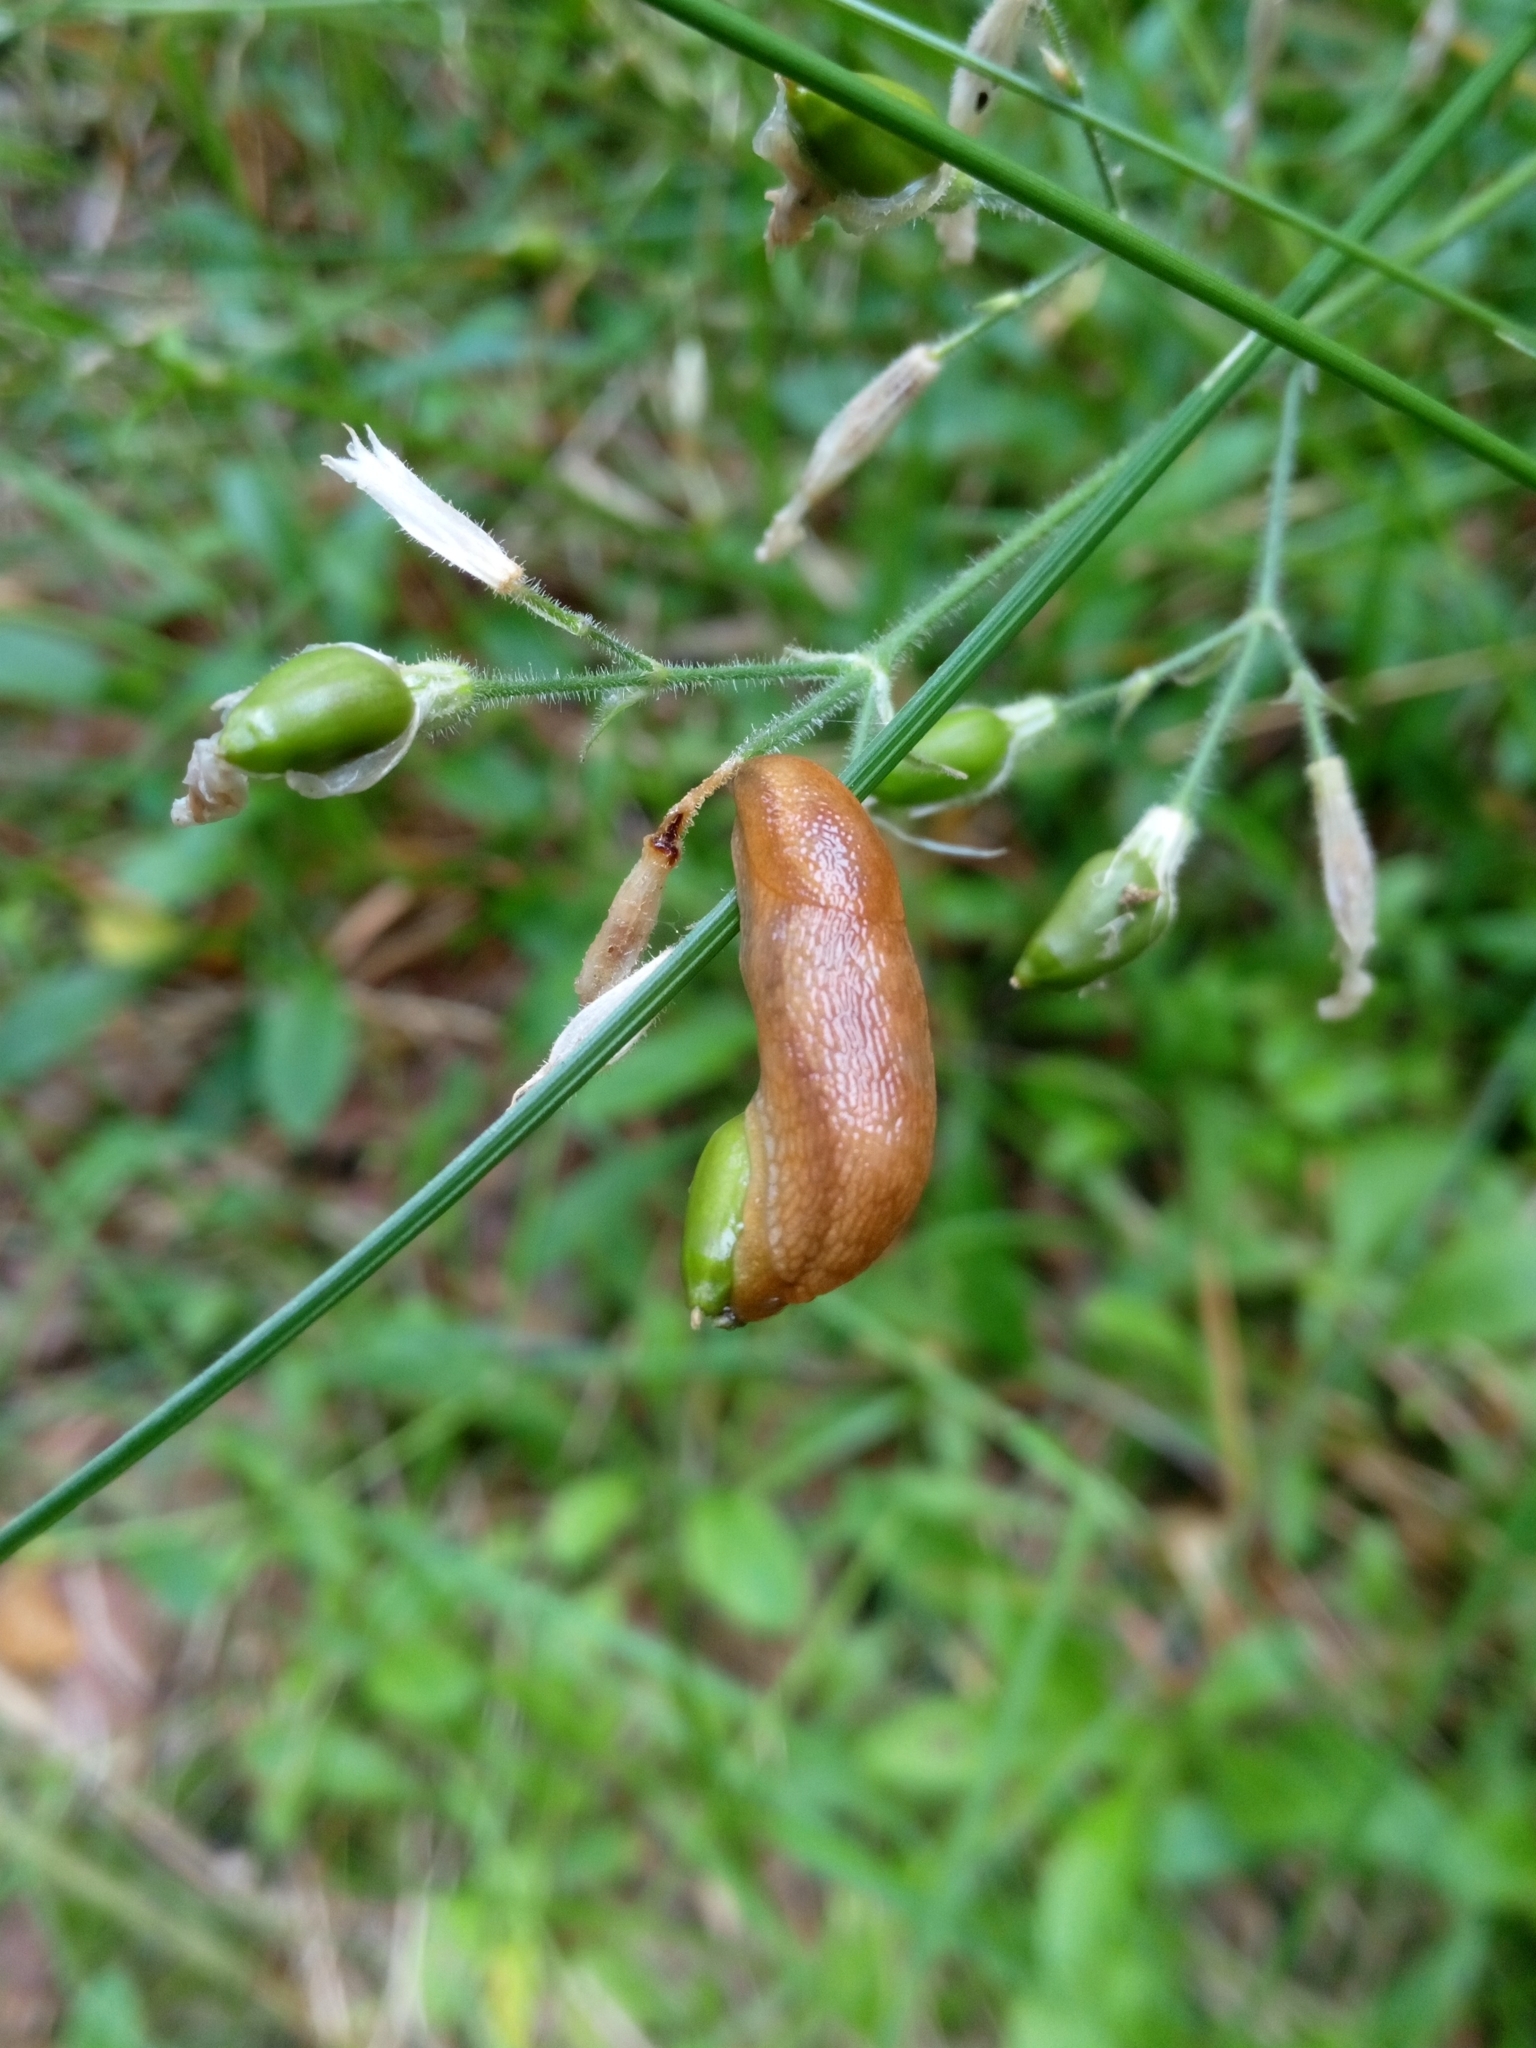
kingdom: Animalia
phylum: Mollusca
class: Gastropoda
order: Stylommatophora
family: Arionidae
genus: Arion
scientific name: Arion fuscus
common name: Northern dusky slug
